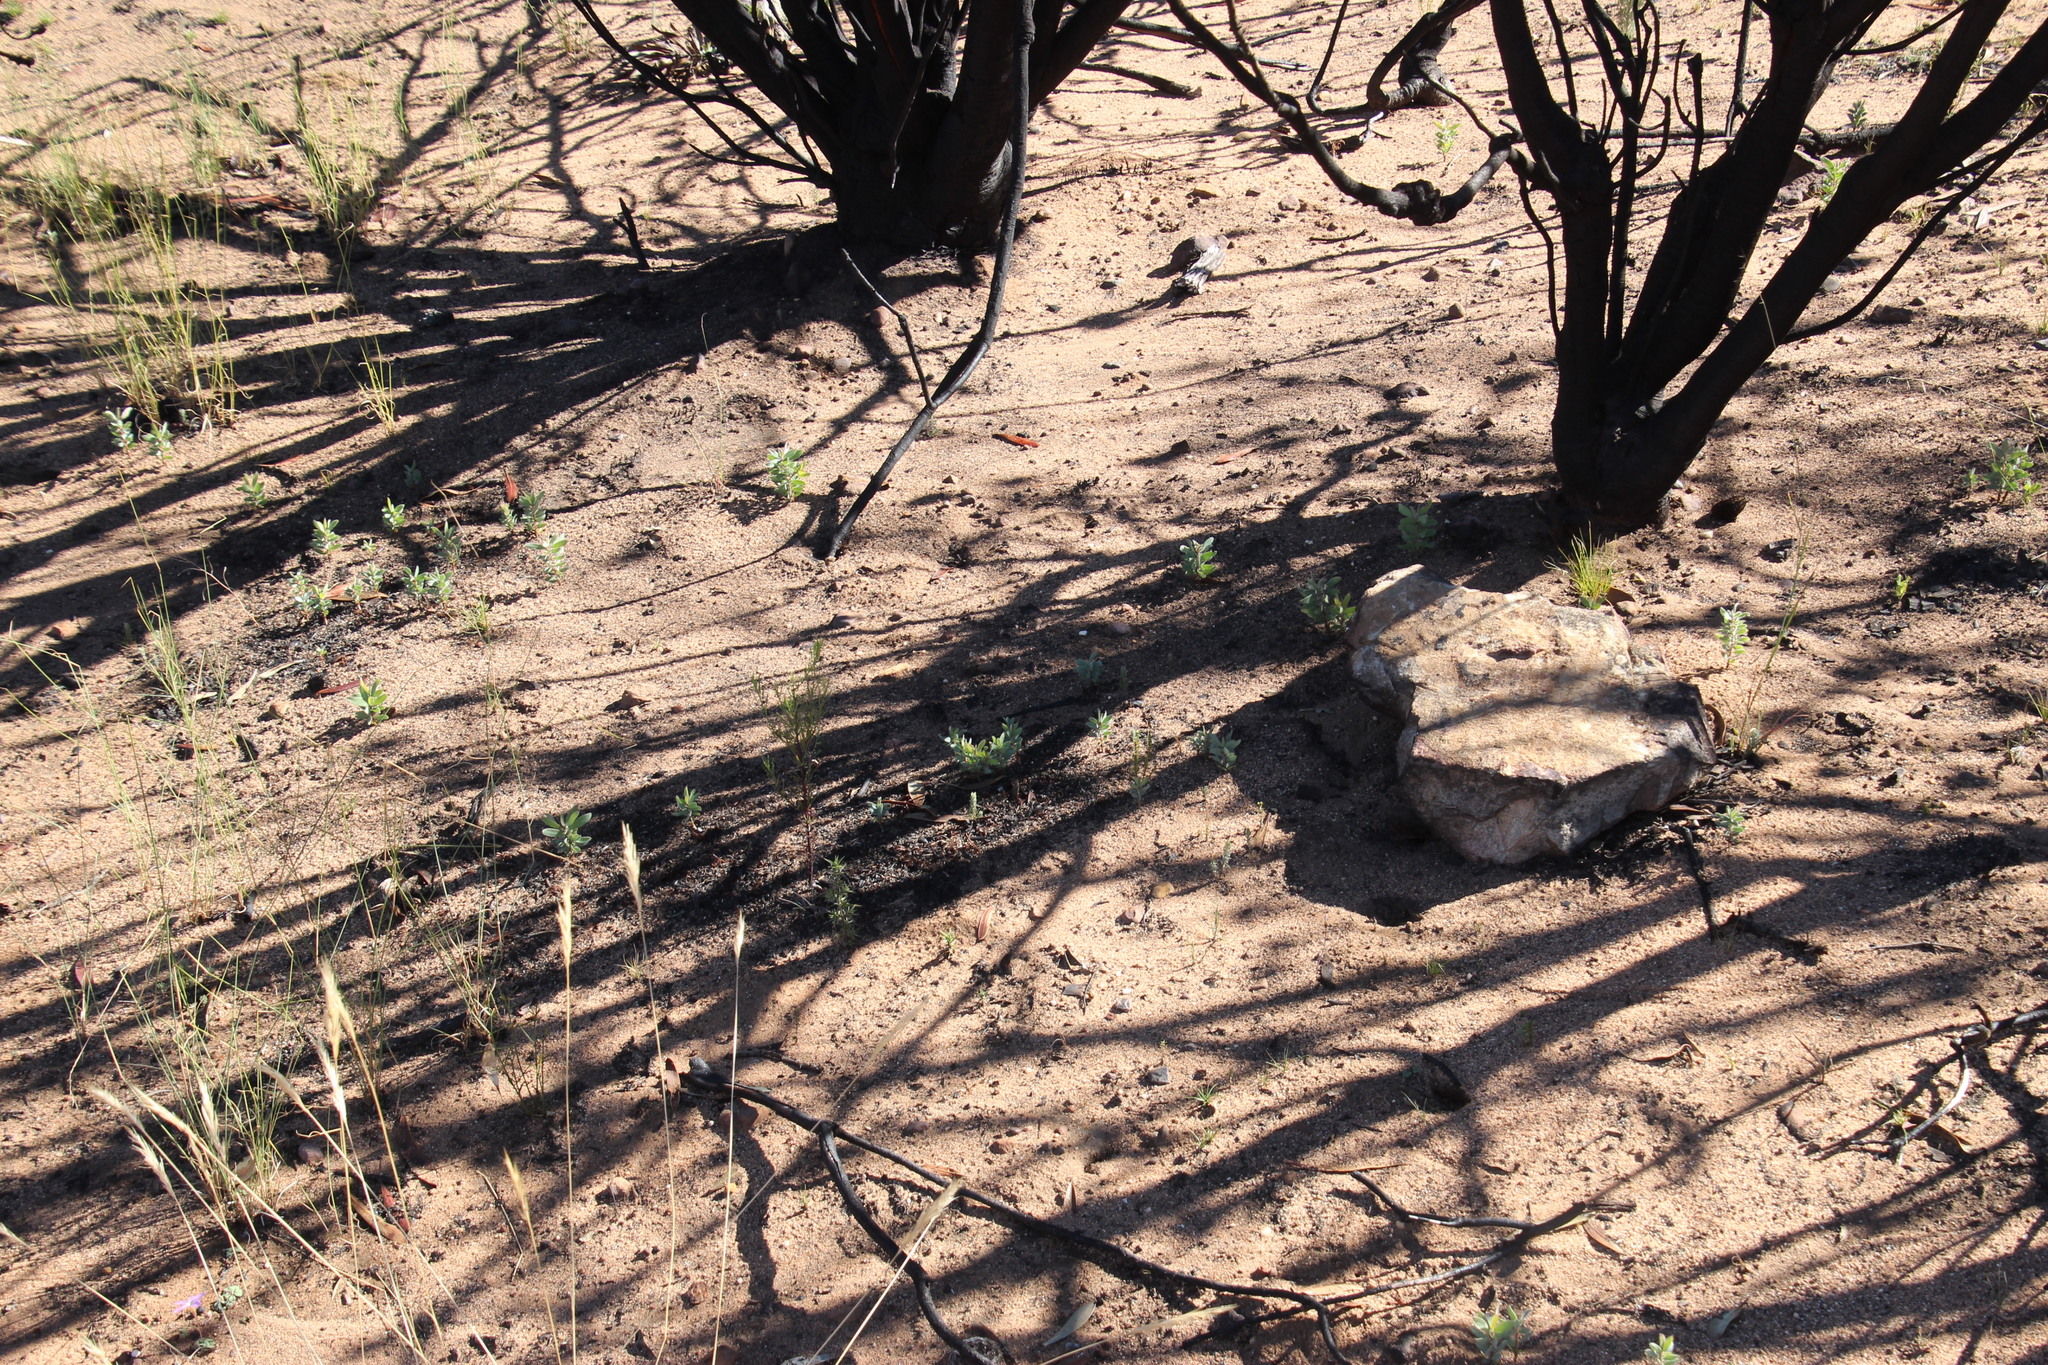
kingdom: Plantae
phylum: Tracheophyta
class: Magnoliopsida
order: Proteales
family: Proteaceae
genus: Protea
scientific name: Protea laurifolia
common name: Grey-leaf sugarbsh
